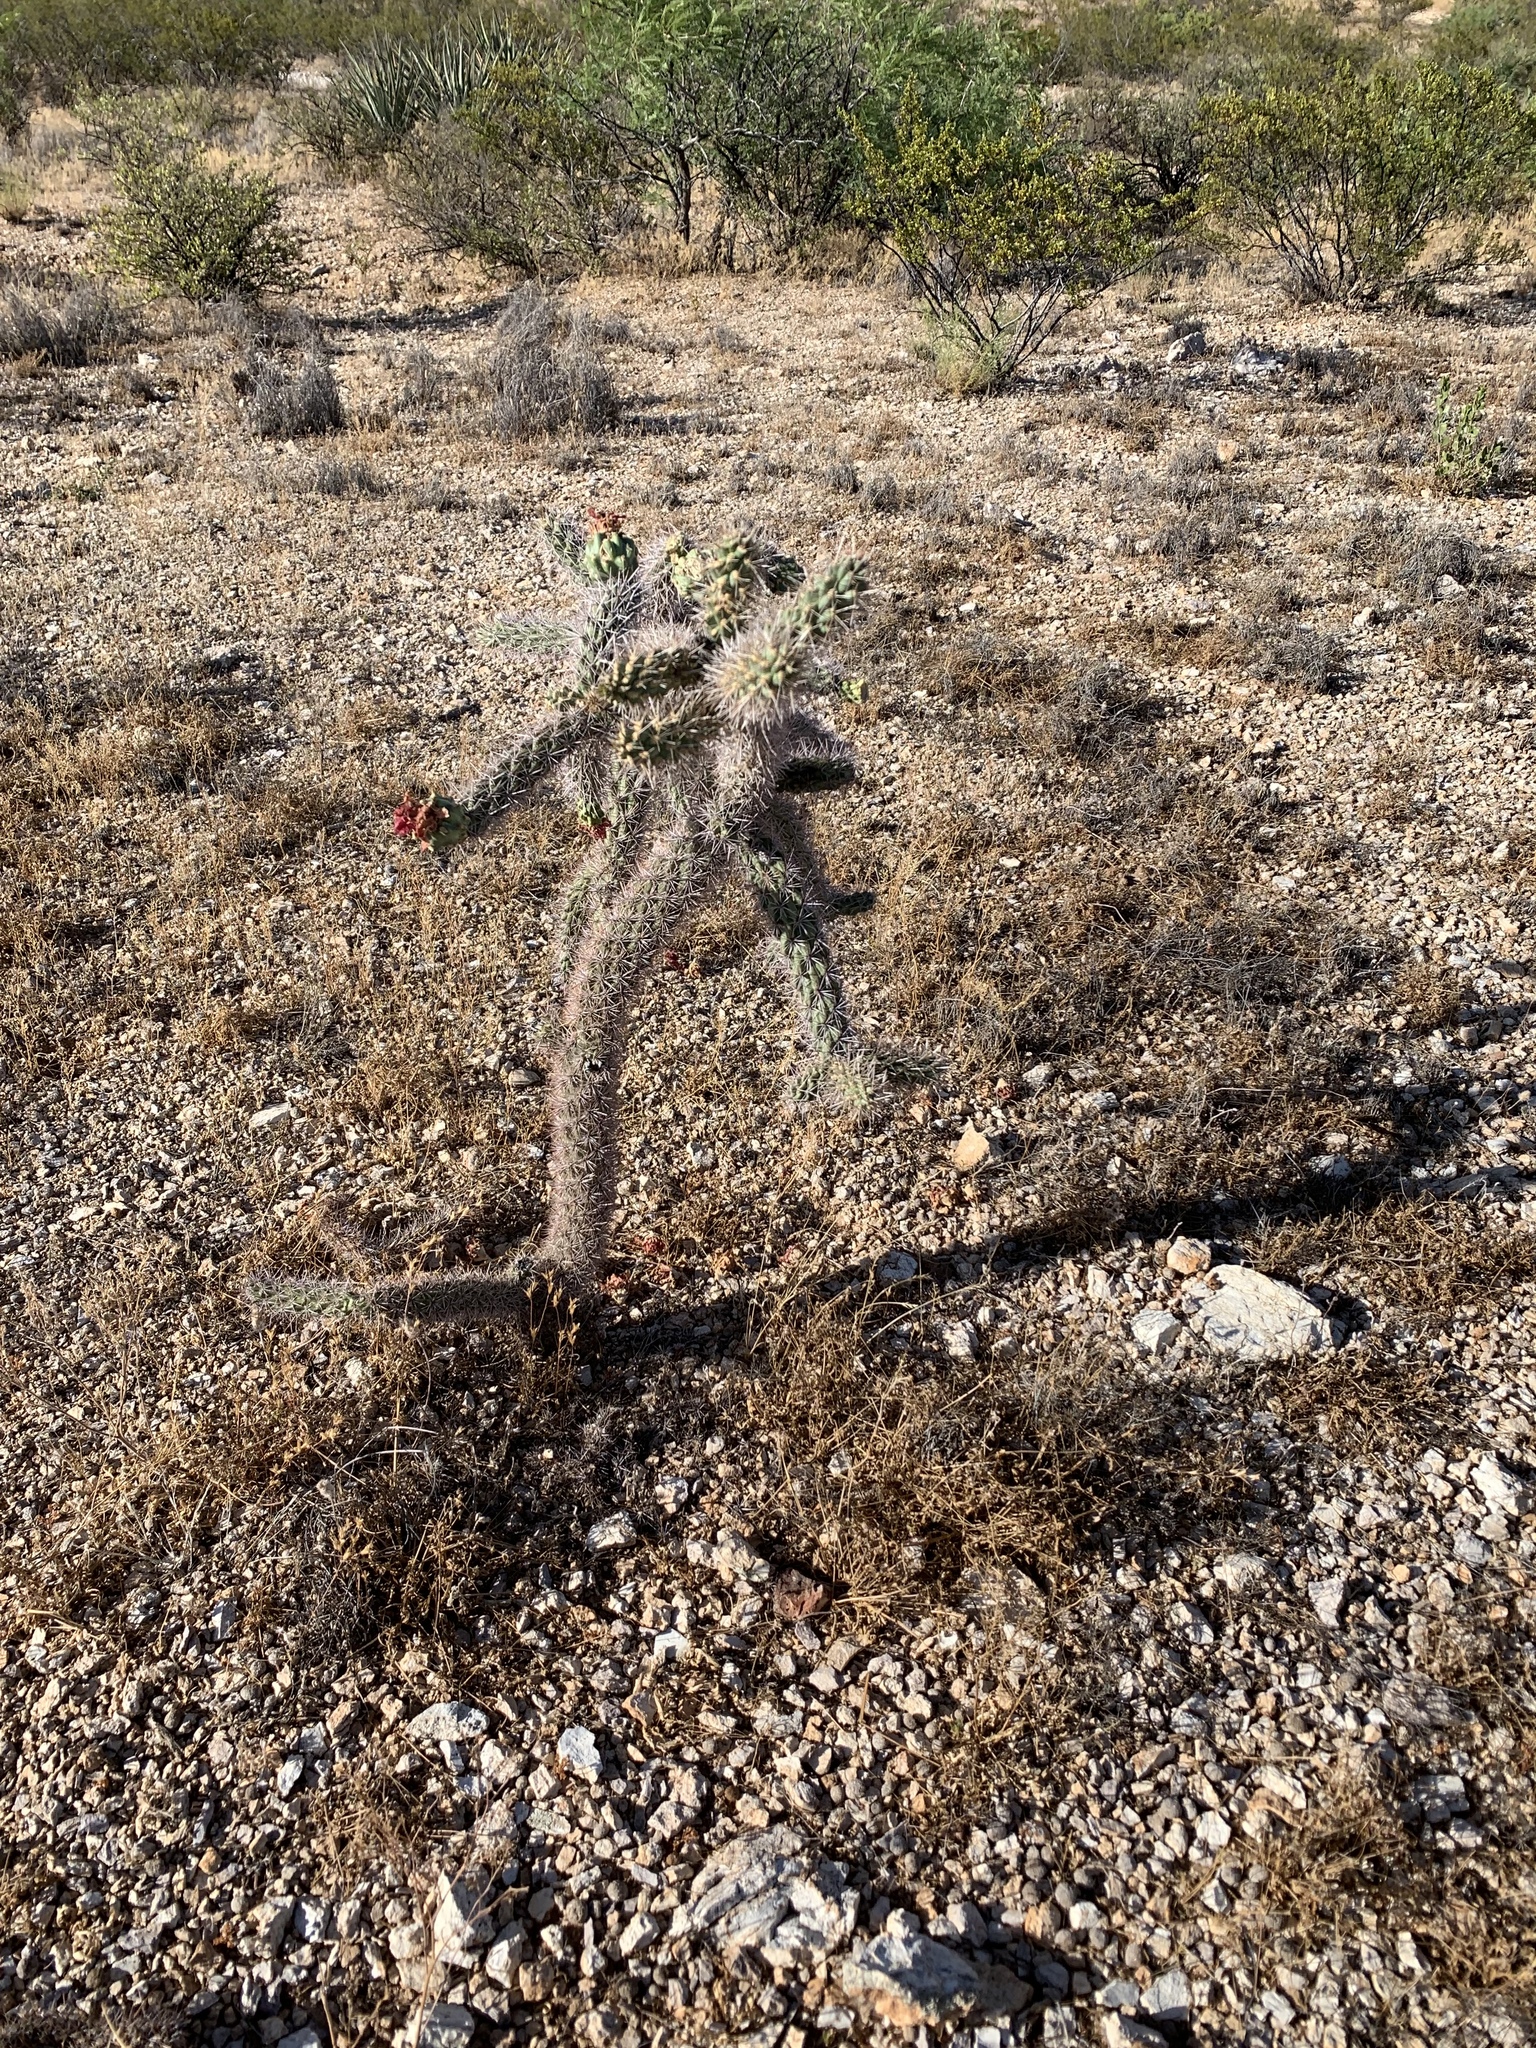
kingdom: Plantae
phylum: Tracheophyta
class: Magnoliopsida
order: Caryophyllales
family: Cactaceae
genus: Cylindropuntia
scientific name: Cylindropuntia imbricata
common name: Candelabrum cactus
